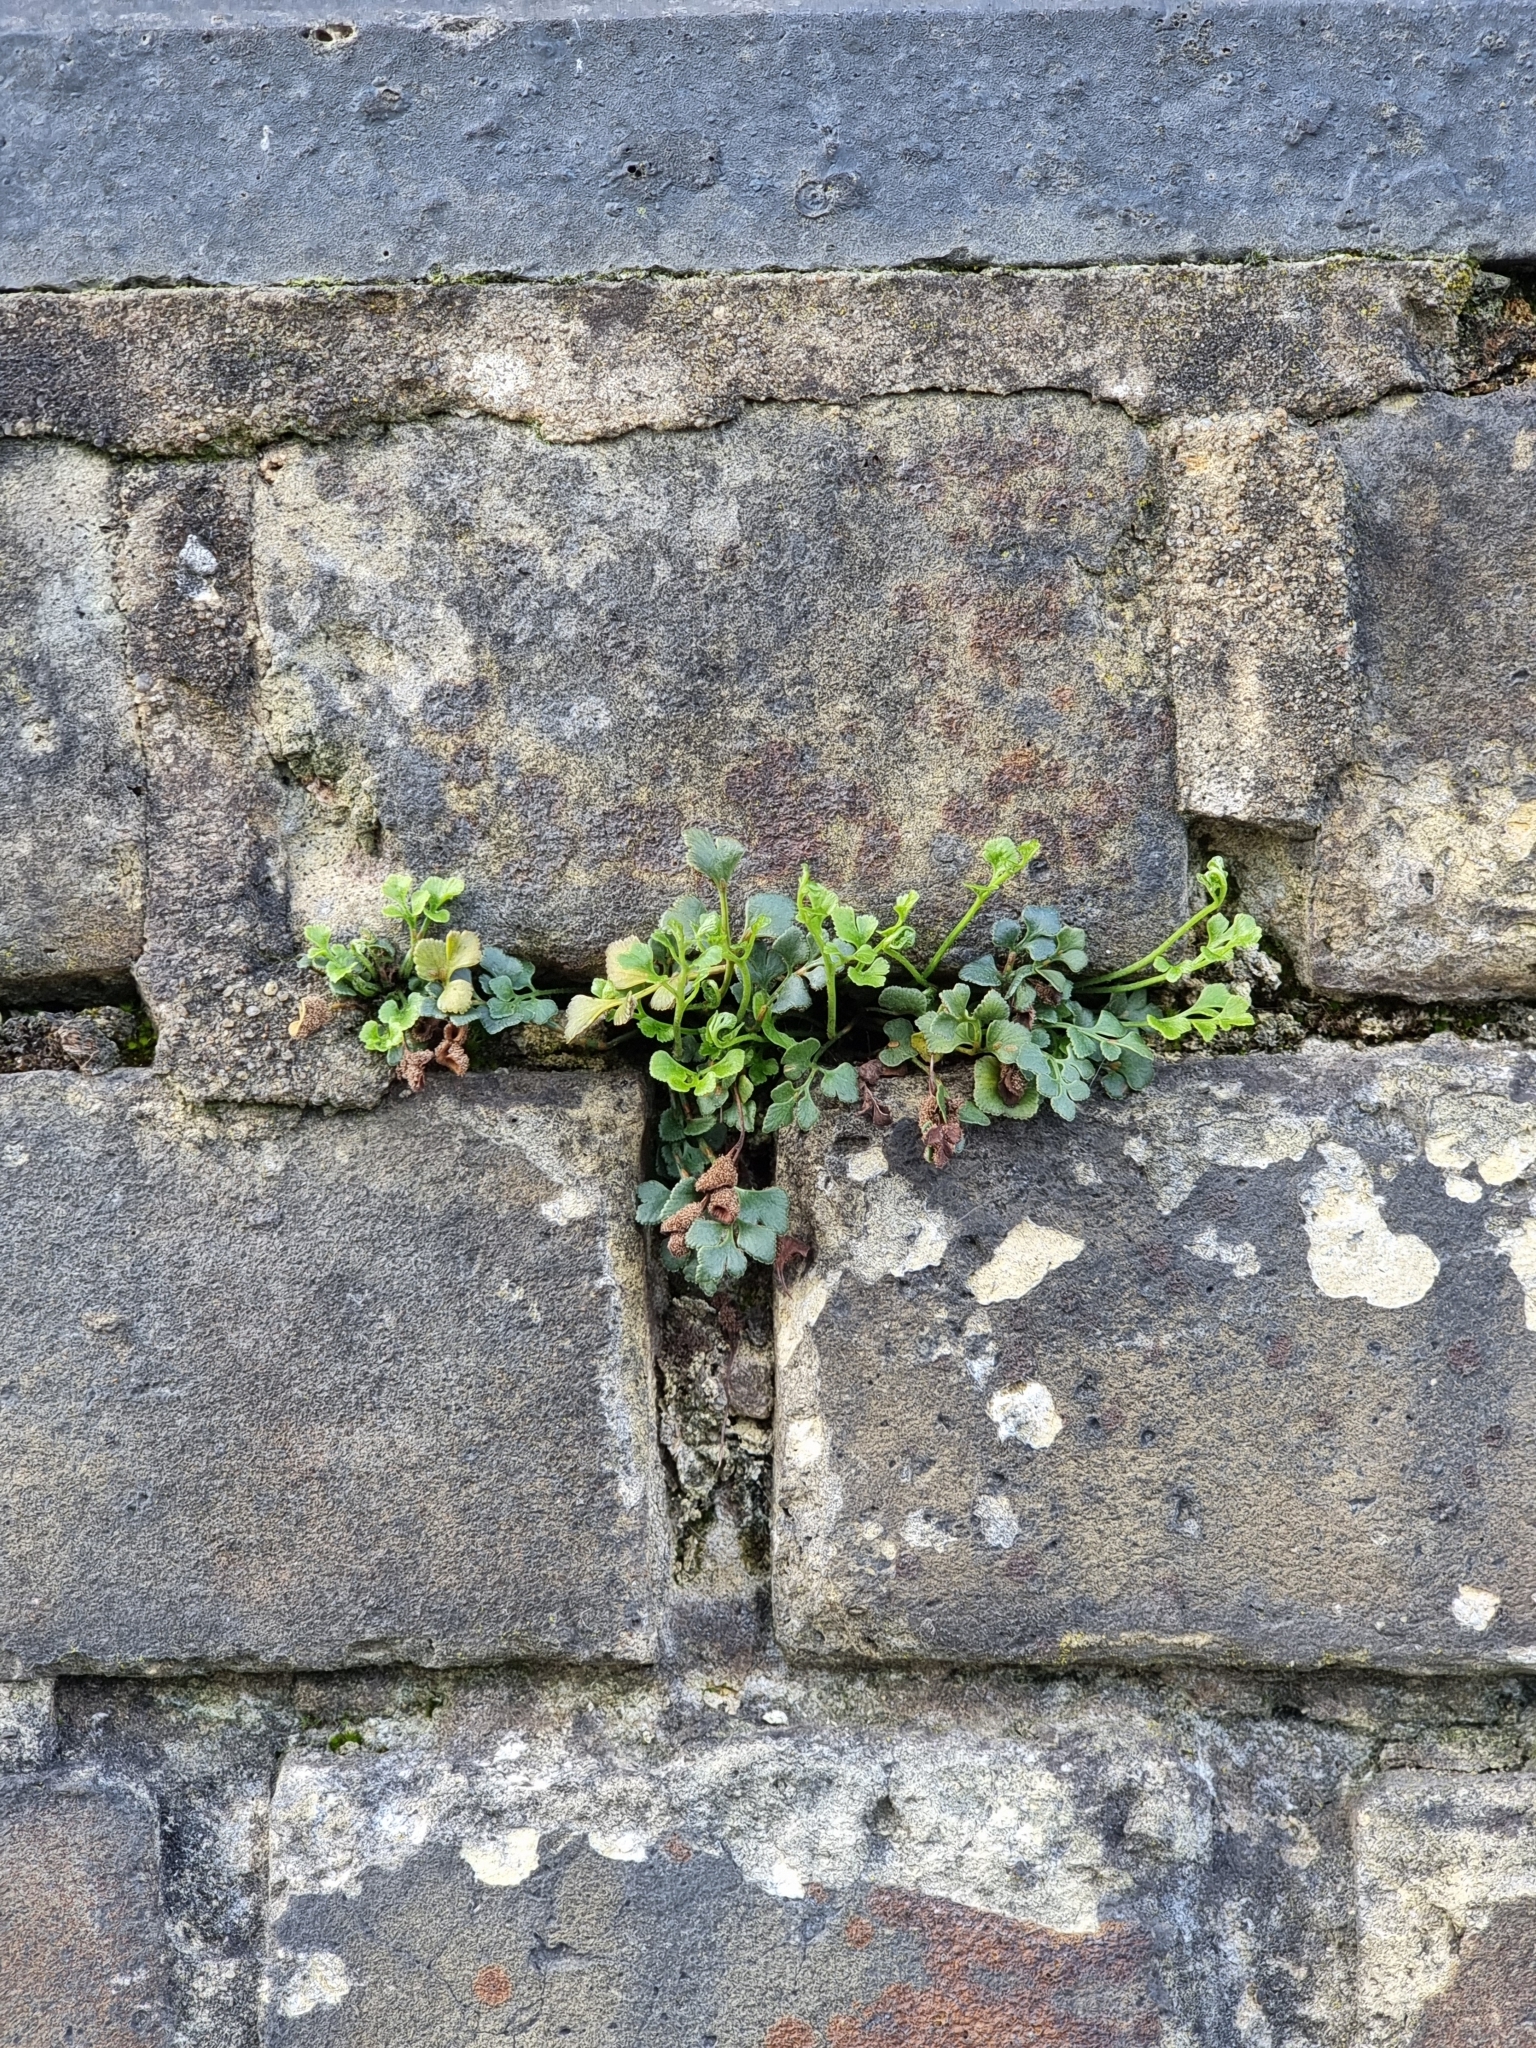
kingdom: Plantae
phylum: Tracheophyta
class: Polypodiopsida
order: Polypodiales
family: Aspleniaceae
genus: Asplenium
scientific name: Asplenium ruta-muraria
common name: Wall-rue
